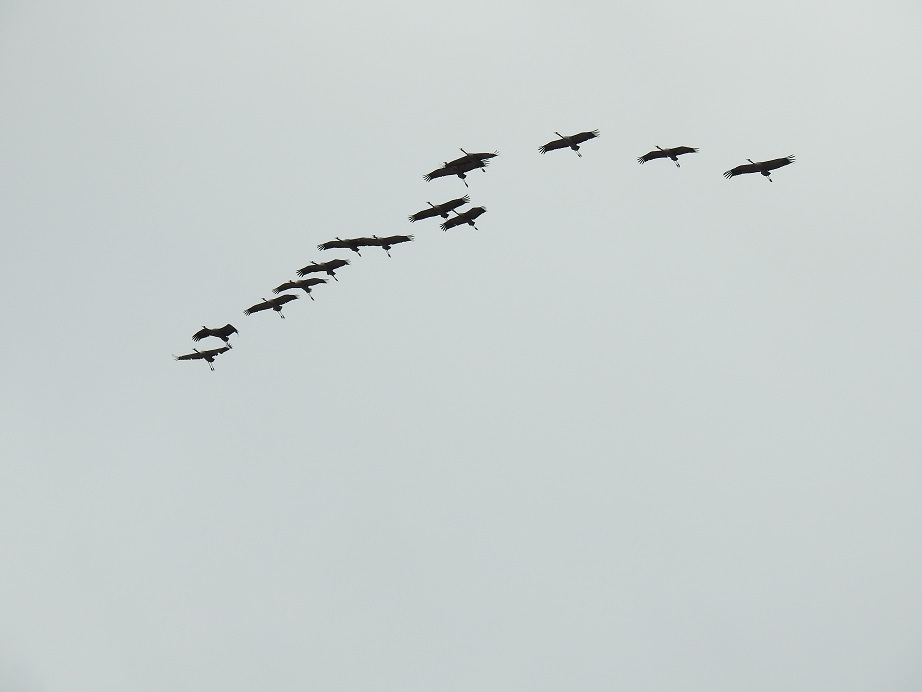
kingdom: Animalia
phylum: Chordata
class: Aves
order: Gruiformes
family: Gruidae
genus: Grus
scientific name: Grus grus
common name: Common crane
